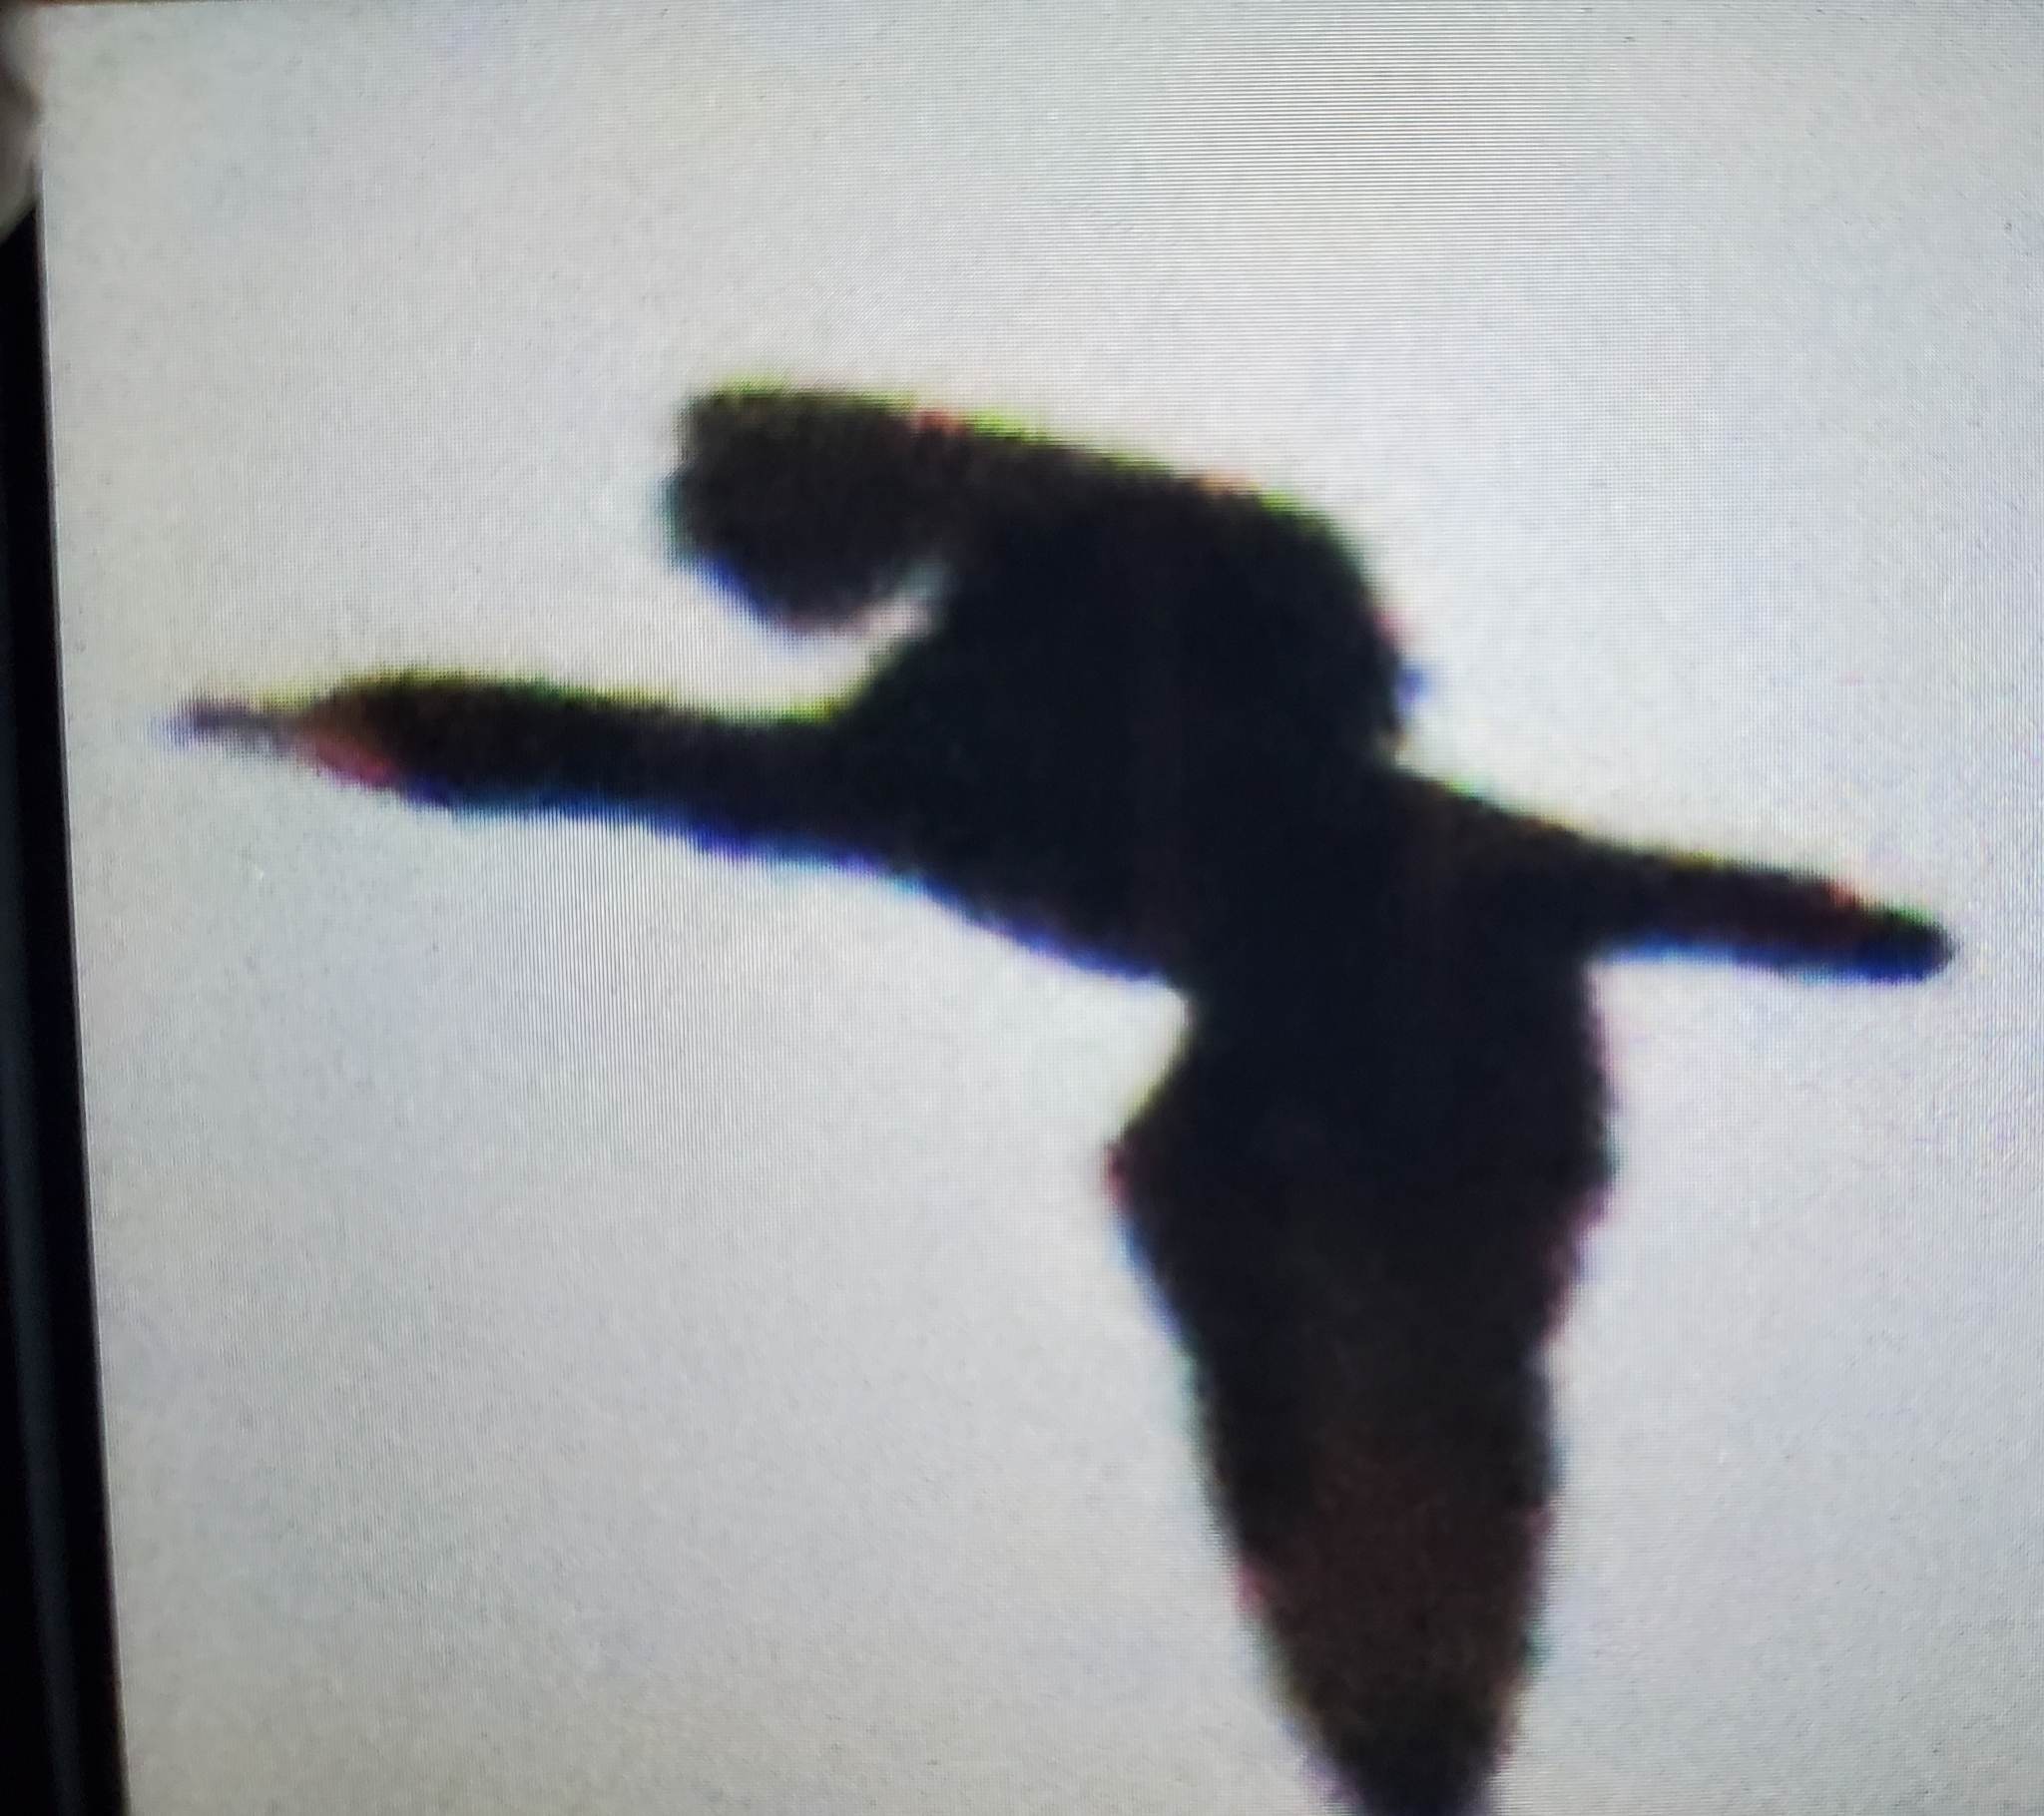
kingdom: Animalia
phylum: Chordata
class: Aves
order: Suliformes
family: Phalacrocoracidae
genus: Phalacrocorax
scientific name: Phalacrocorax auritus
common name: Double-crested cormorant
